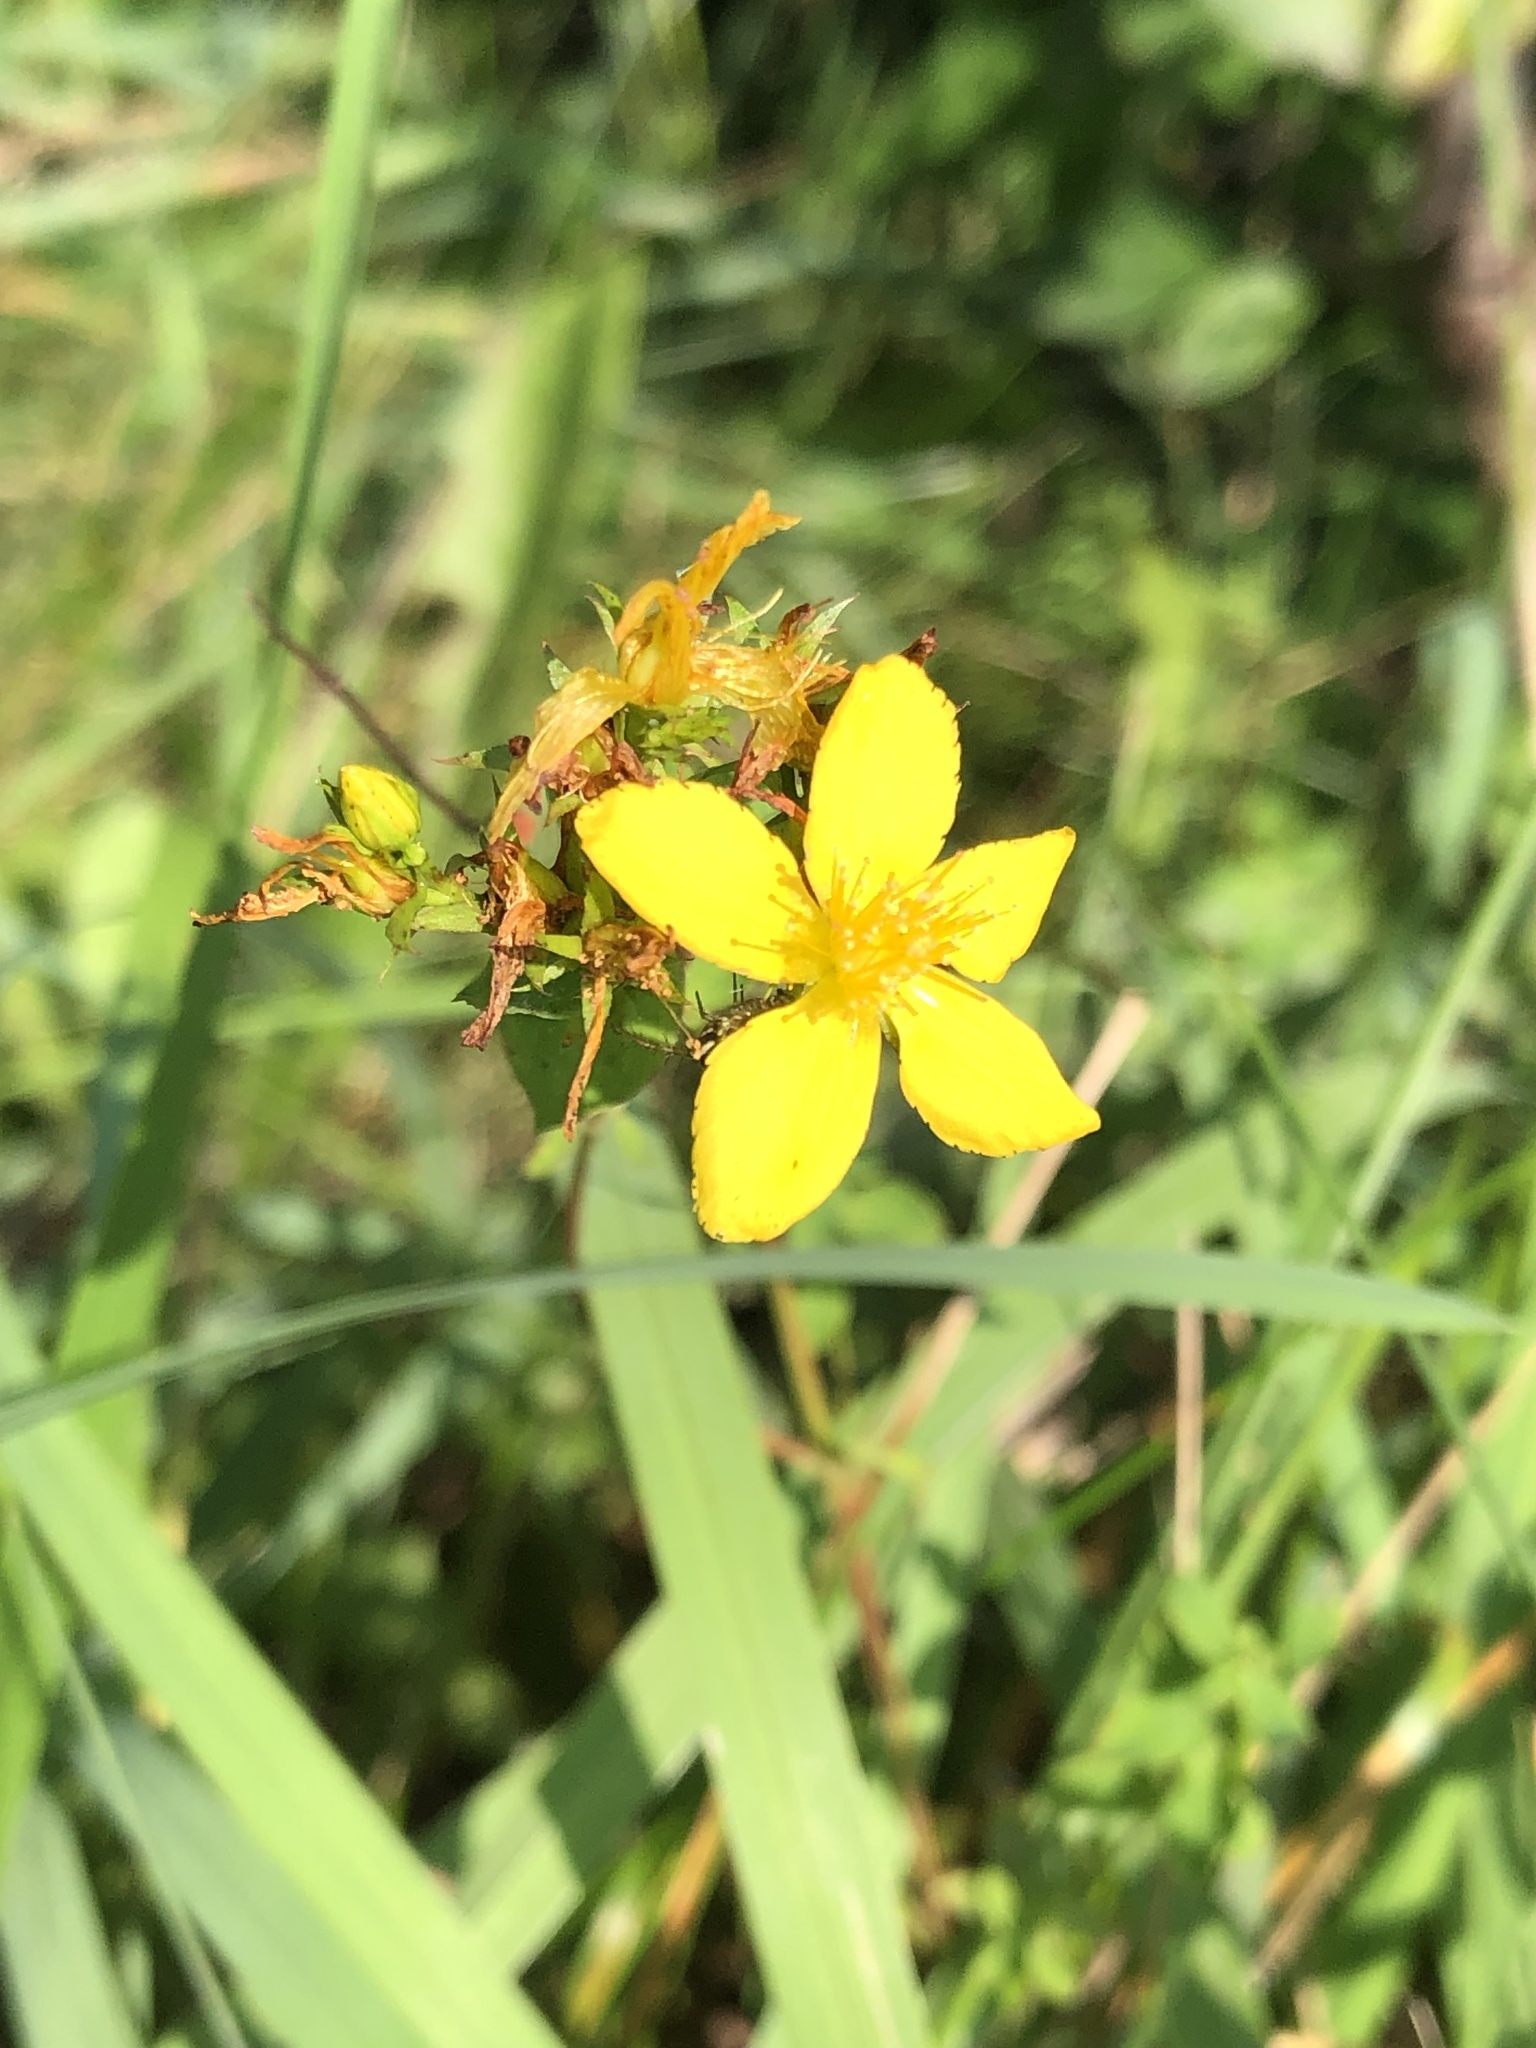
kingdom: Plantae
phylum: Tracheophyta
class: Magnoliopsida
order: Malpighiales
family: Hypericaceae
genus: Hypericum
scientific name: Hypericum perforatum
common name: Common st. johnswort
